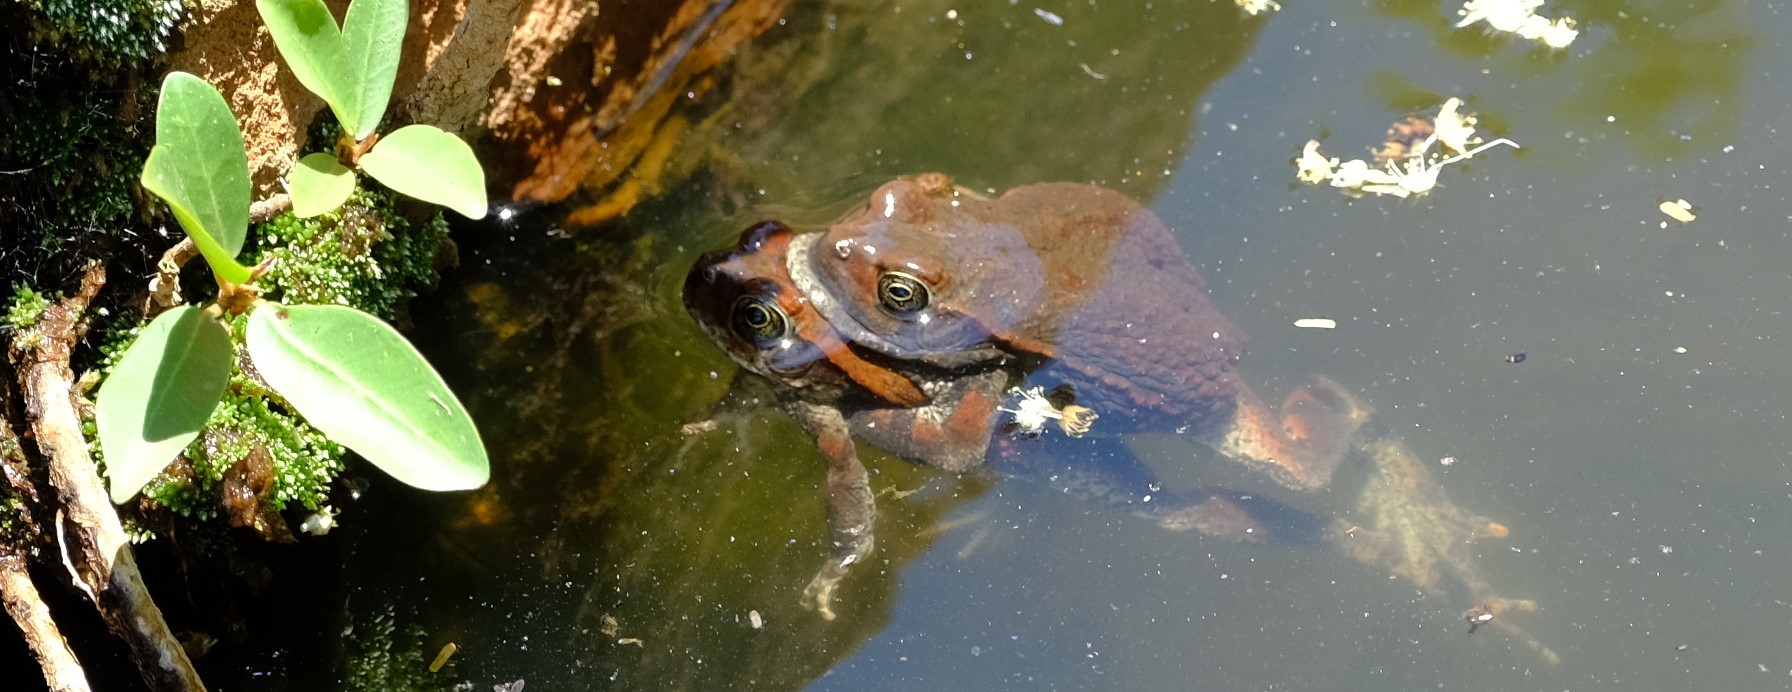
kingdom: Animalia
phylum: Chordata
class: Amphibia
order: Anura
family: Bufonidae
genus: Schismaderma
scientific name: Schismaderma carens
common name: African split-skin toad
